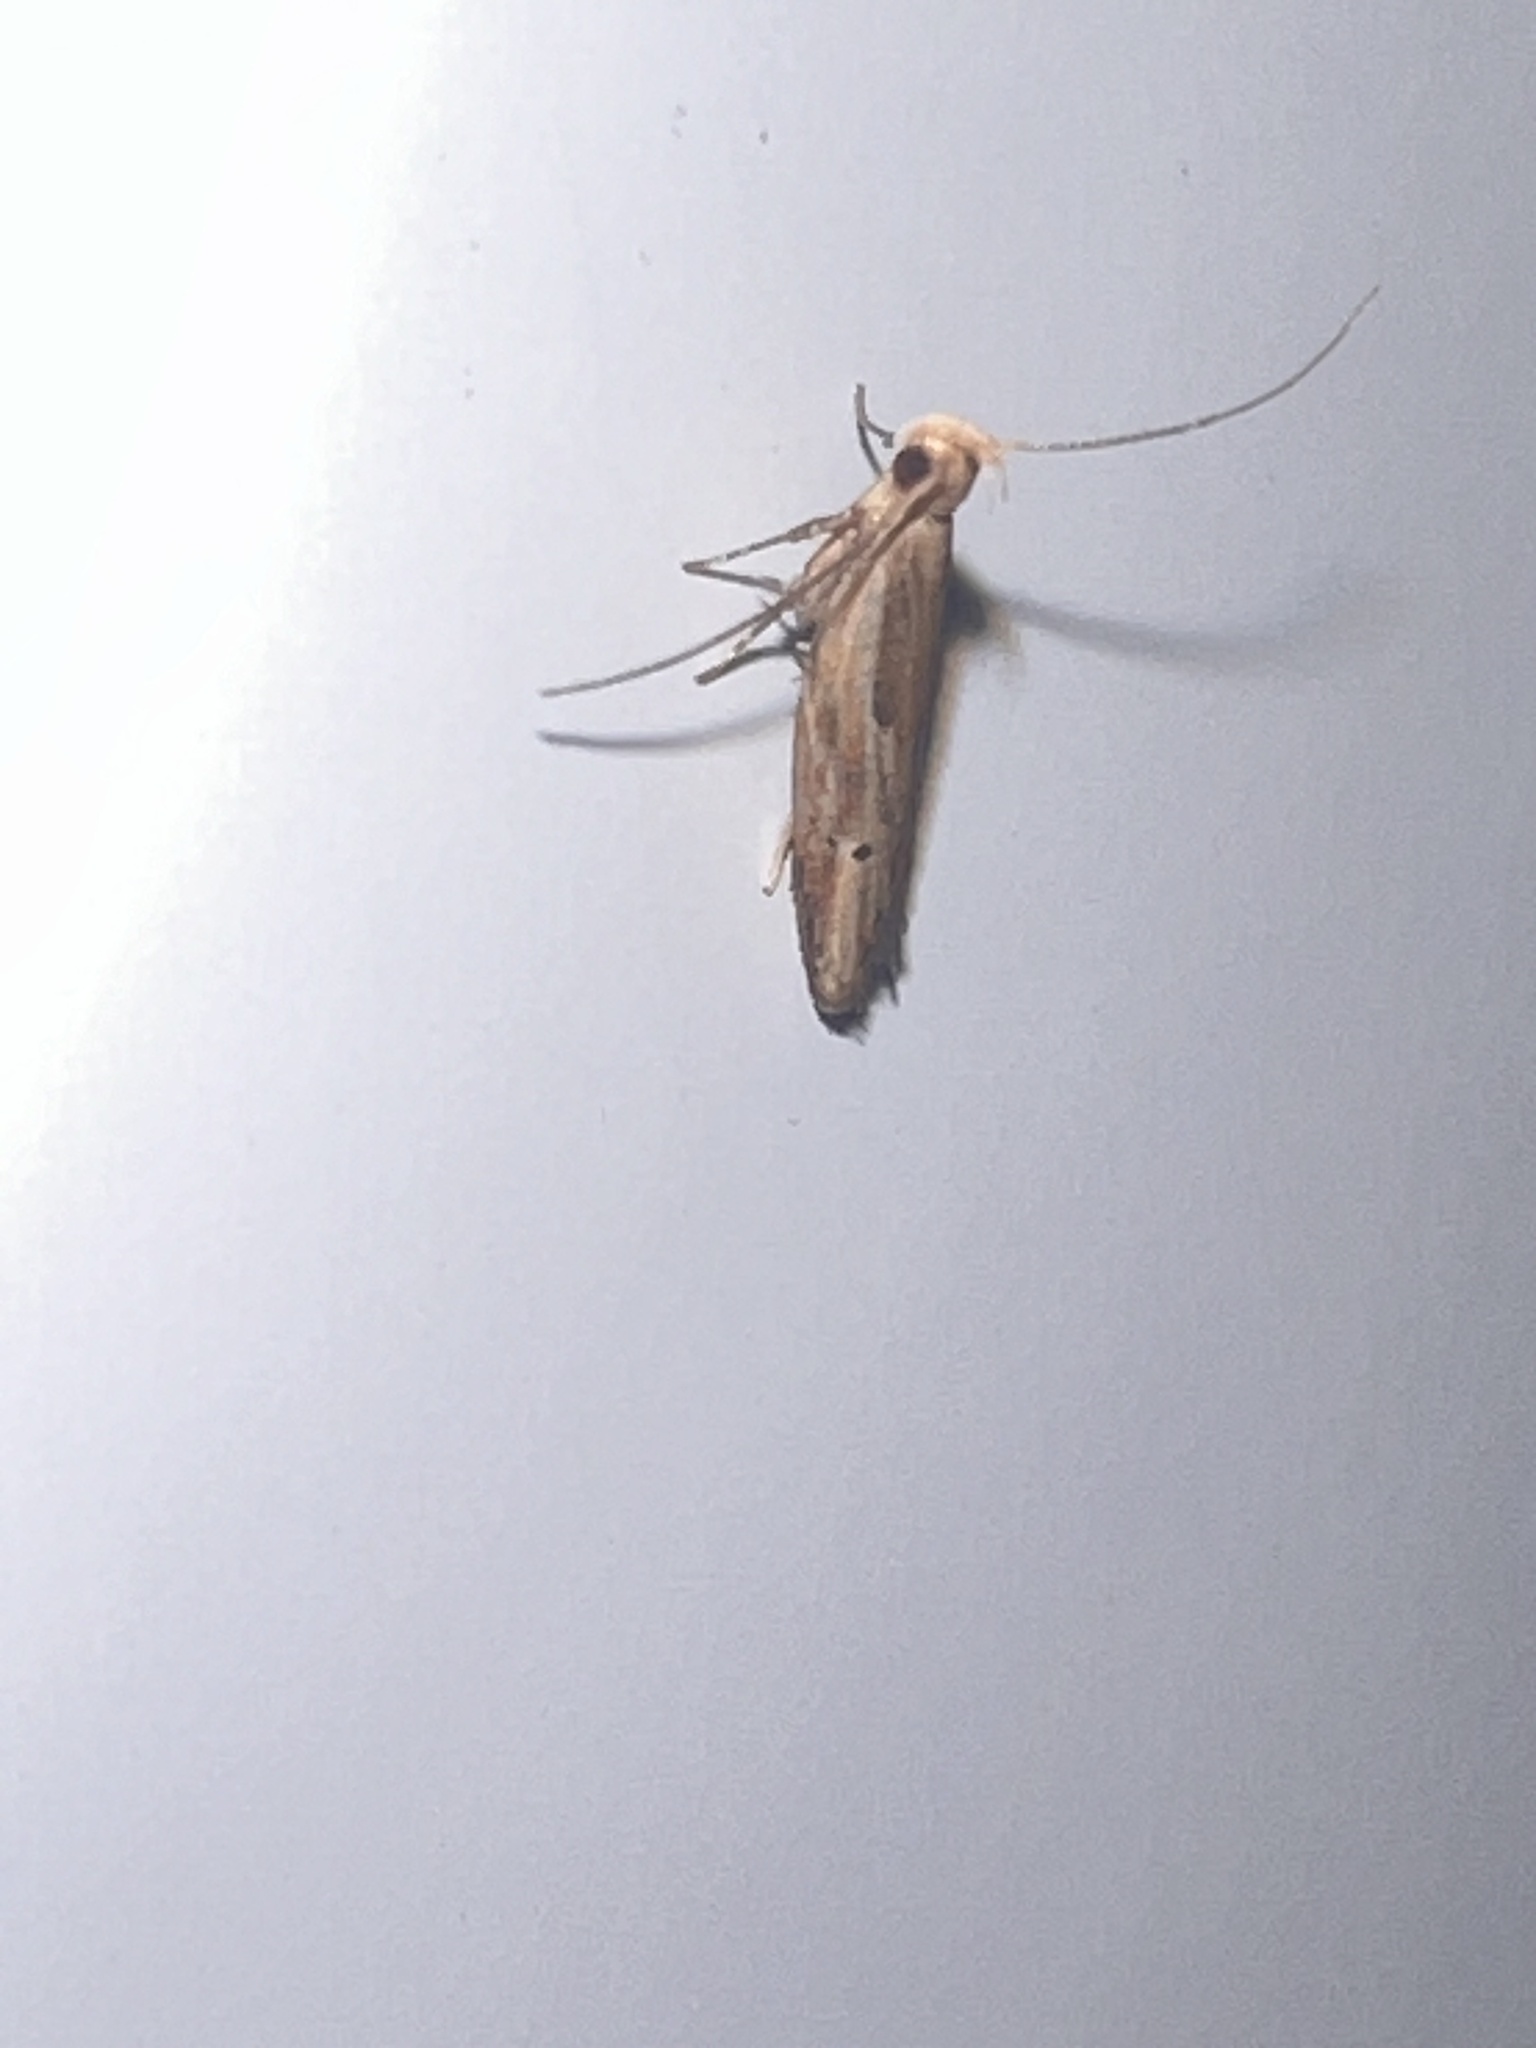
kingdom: Animalia
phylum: Arthropoda
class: Insecta
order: Lepidoptera
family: Depressariidae
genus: Eutorna
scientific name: Eutorna symmorpha
